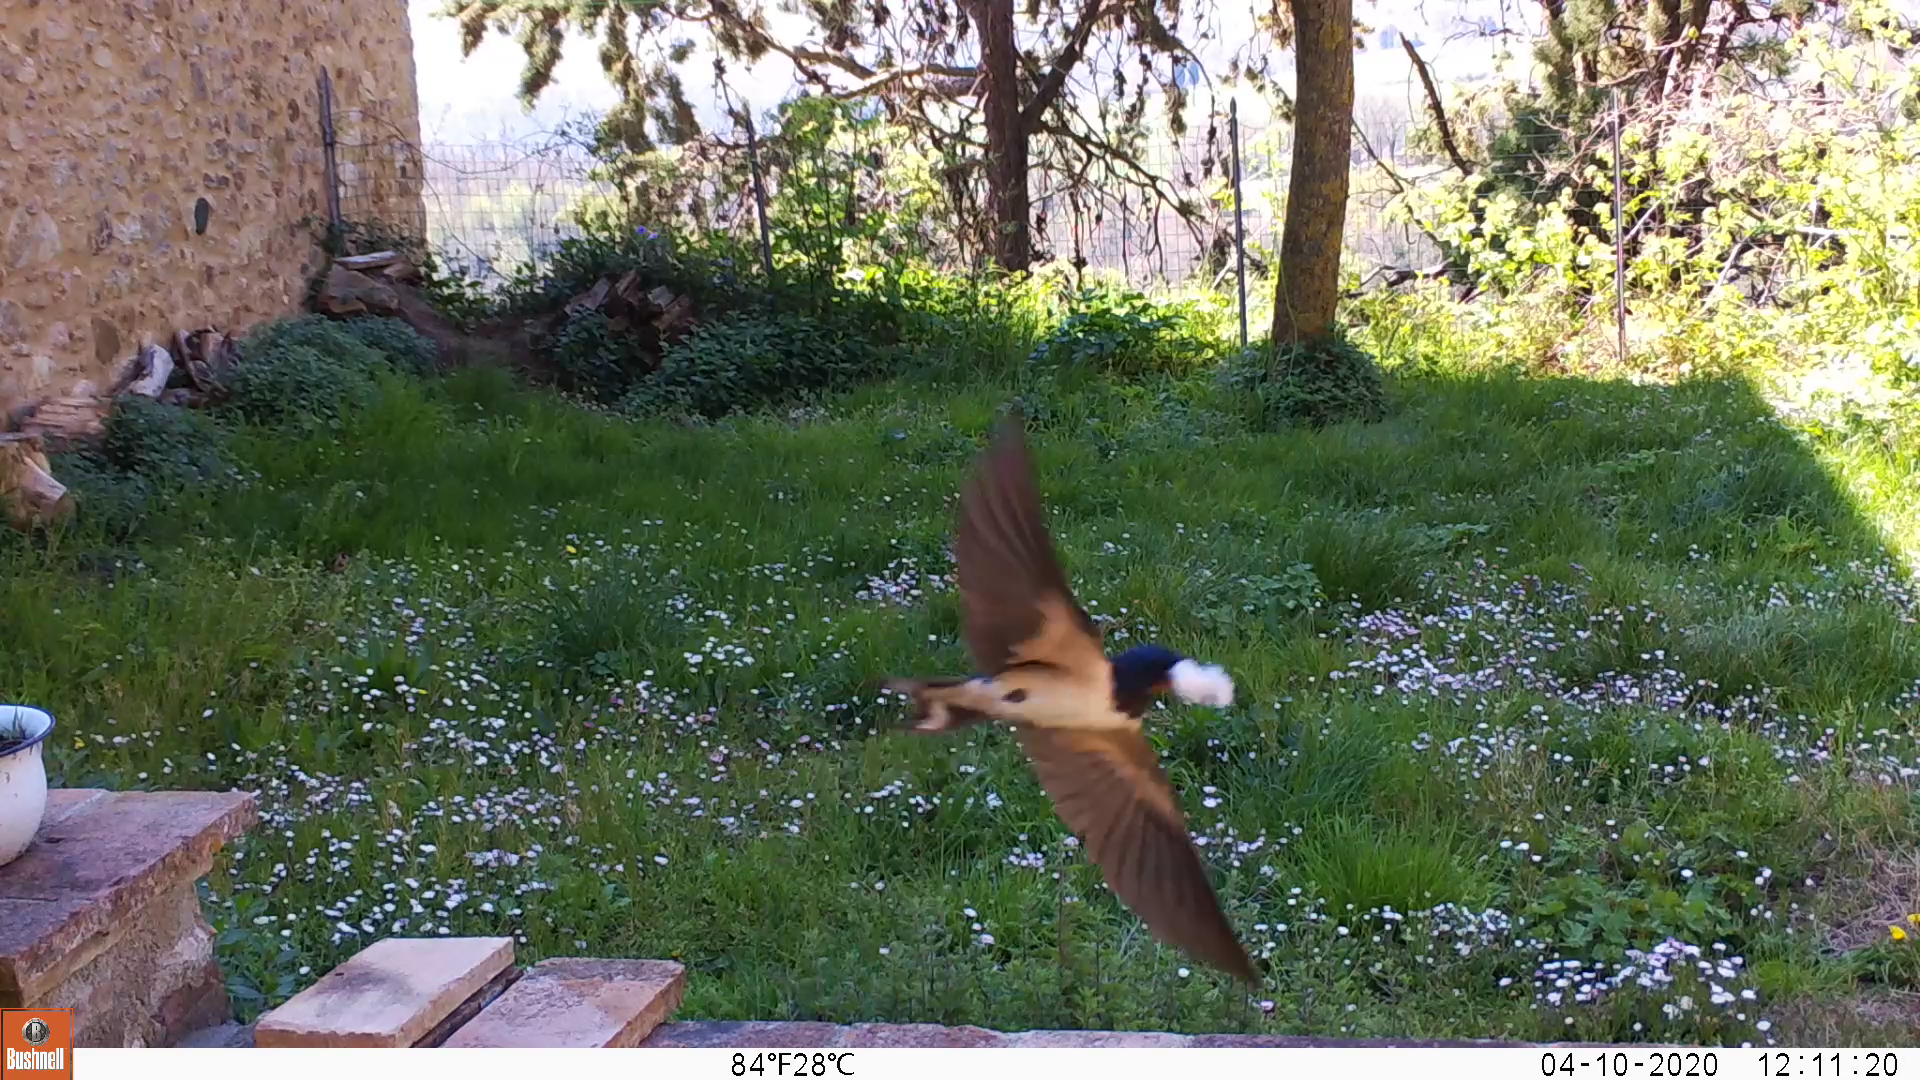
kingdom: Animalia
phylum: Chordata
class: Aves
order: Passeriformes
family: Hirundinidae
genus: Hirundo
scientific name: Hirundo rustica
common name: Barn swallow
